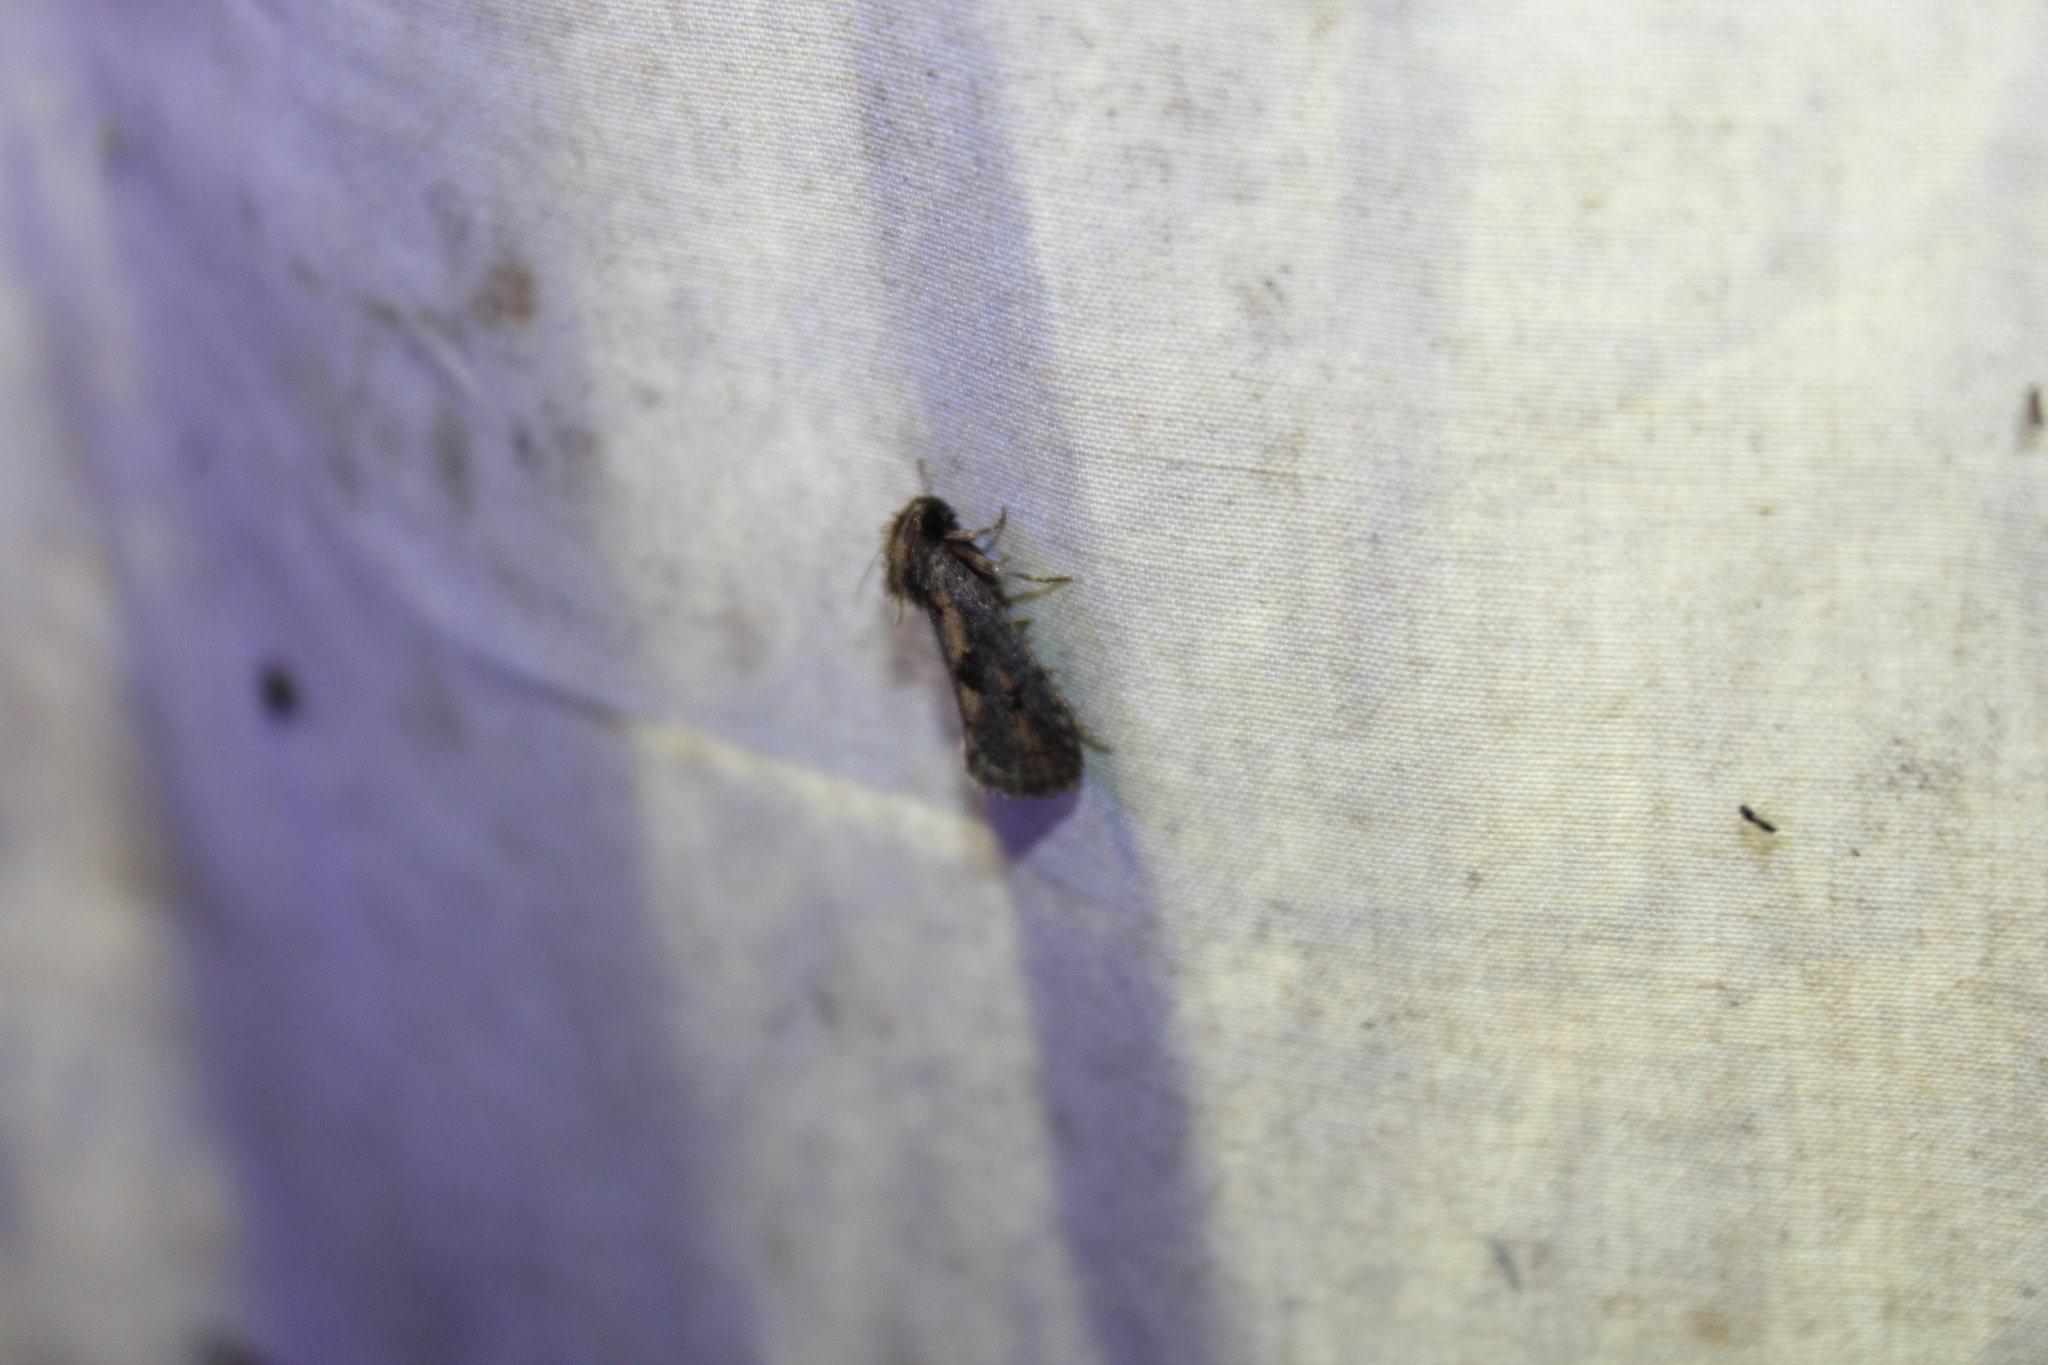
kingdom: Animalia
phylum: Arthropoda
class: Insecta
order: Lepidoptera
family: Tineidae
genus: Acrolophus
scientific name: Acrolophus popeanella
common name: Clemens' grass tubeworm moth
